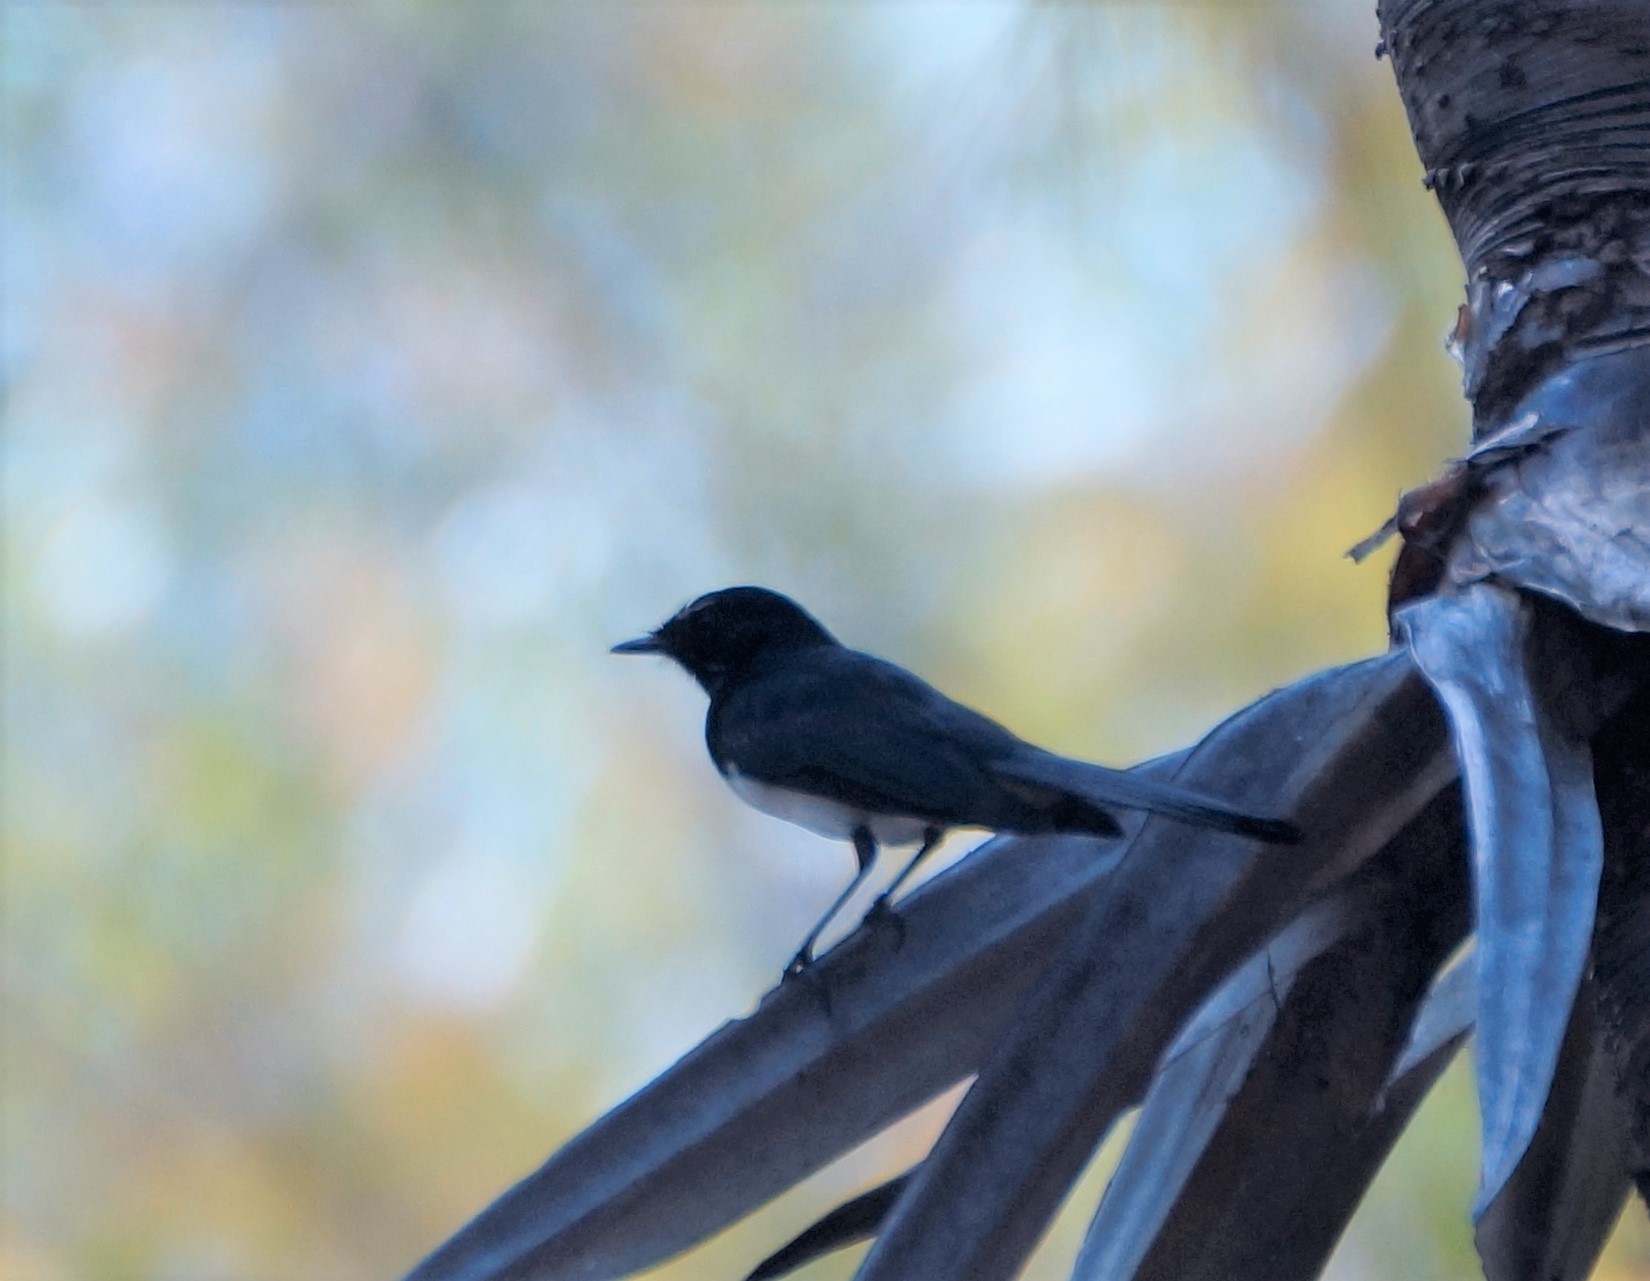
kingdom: Animalia
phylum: Chordata
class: Aves
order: Passeriformes
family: Rhipiduridae
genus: Rhipidura
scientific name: Rhipidura leucophrys
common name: Willie wagtail
